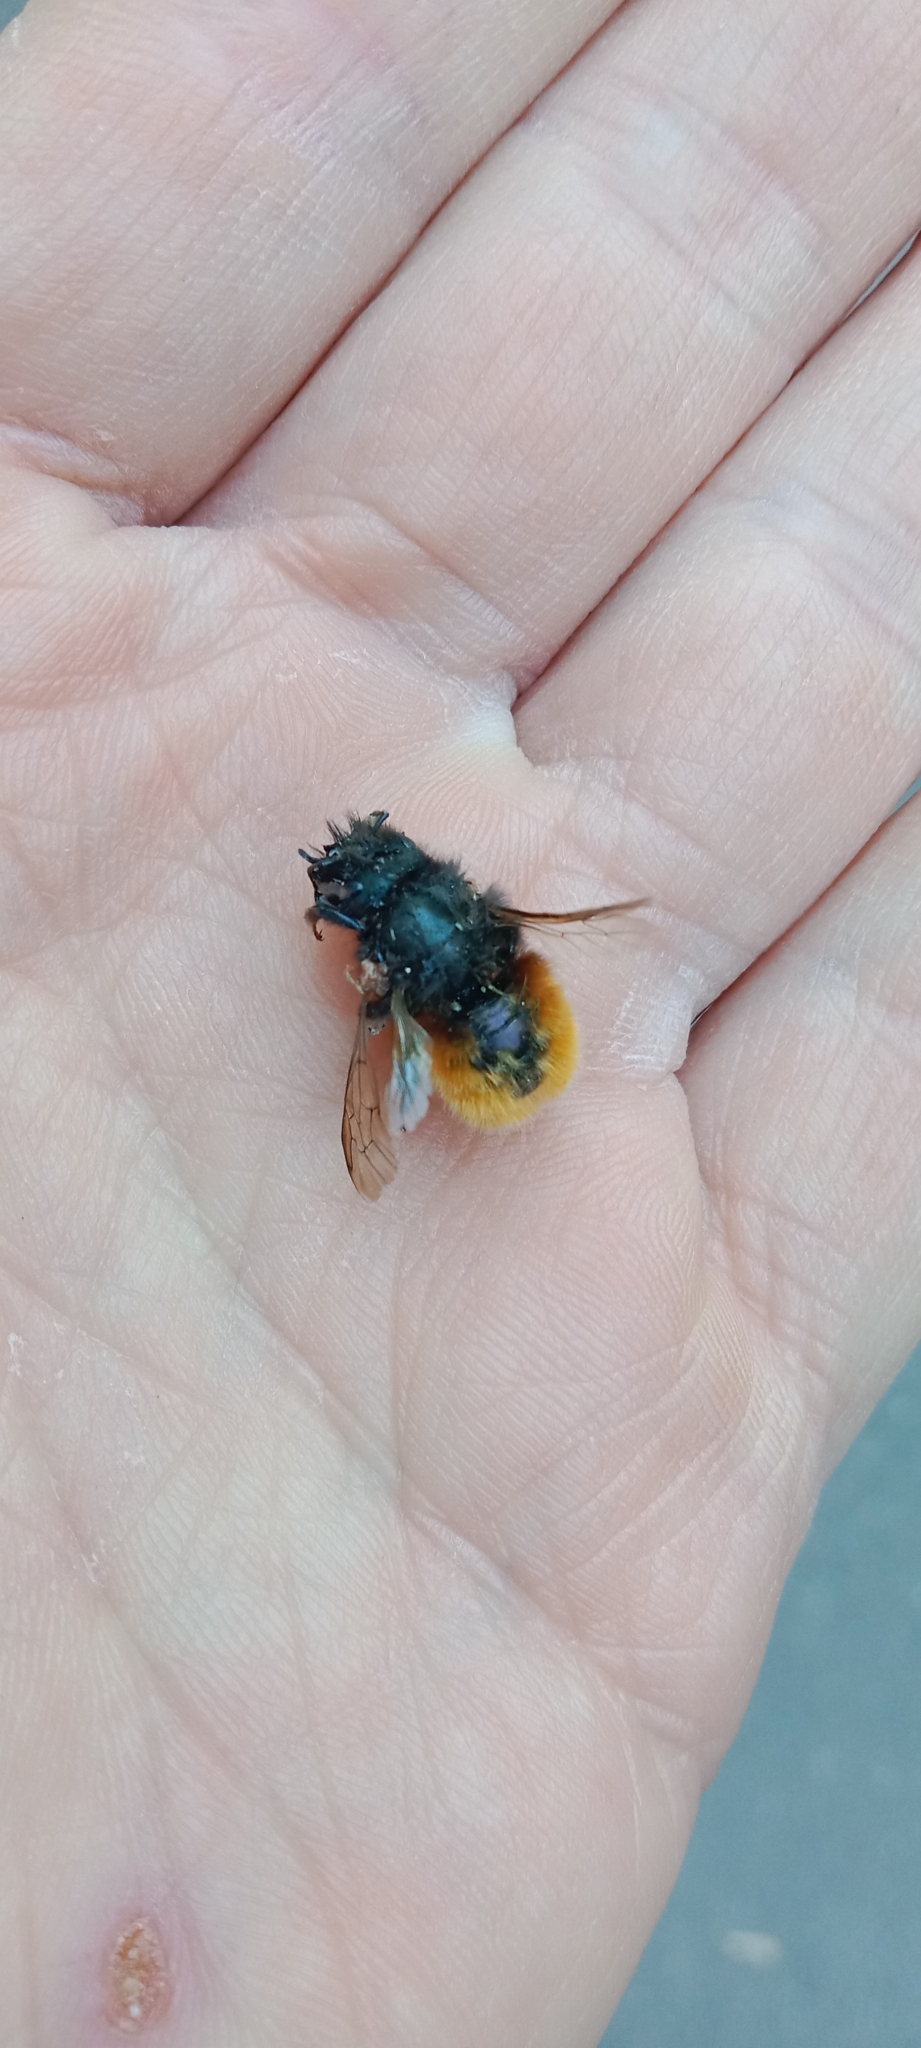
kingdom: Animalia
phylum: Arthropoda
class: Insecta
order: Hymenoptera
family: Megachilidae
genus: Osmia
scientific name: Osmia cornuta
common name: Mason bee
